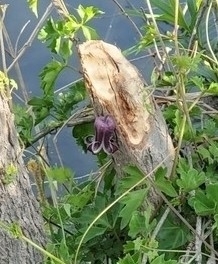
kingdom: Plantae
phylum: Tracheophyta
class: Magnoliopsida
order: Ranunculales
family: Ranunculaceae
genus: Clematis
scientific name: Clematis pitcheri
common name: Bellflower clematis
